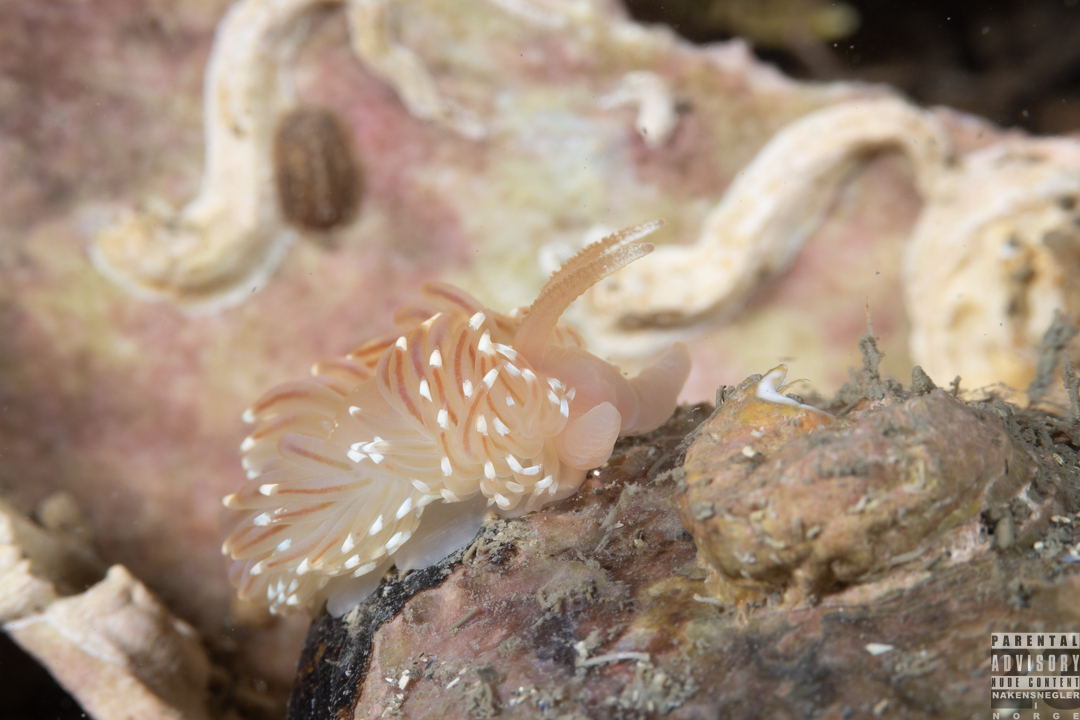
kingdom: Animalia
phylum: Mollusca
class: Gastropoda
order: Nudibranchia
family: Facelinidae
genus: Facelina
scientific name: Facelina bostoniensis
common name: Boston facelina
